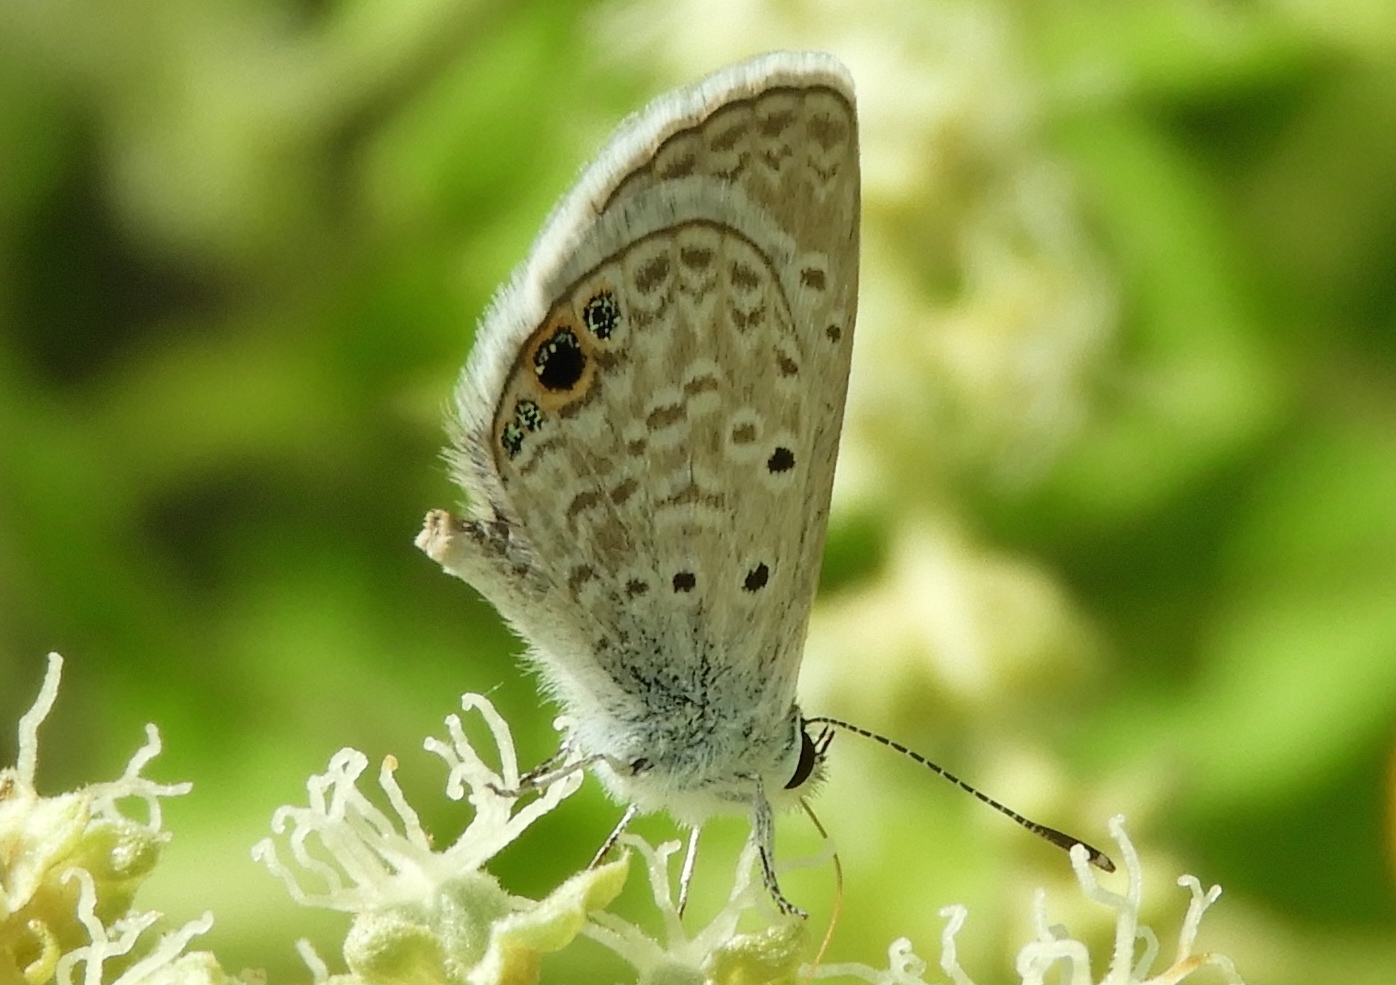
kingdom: Animalia
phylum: Arthropoda
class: Insecta
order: Lepidoptera
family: Lycaenidae
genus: Hemiargus
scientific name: Hemiargus ceraunus
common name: Ceraunus blue
